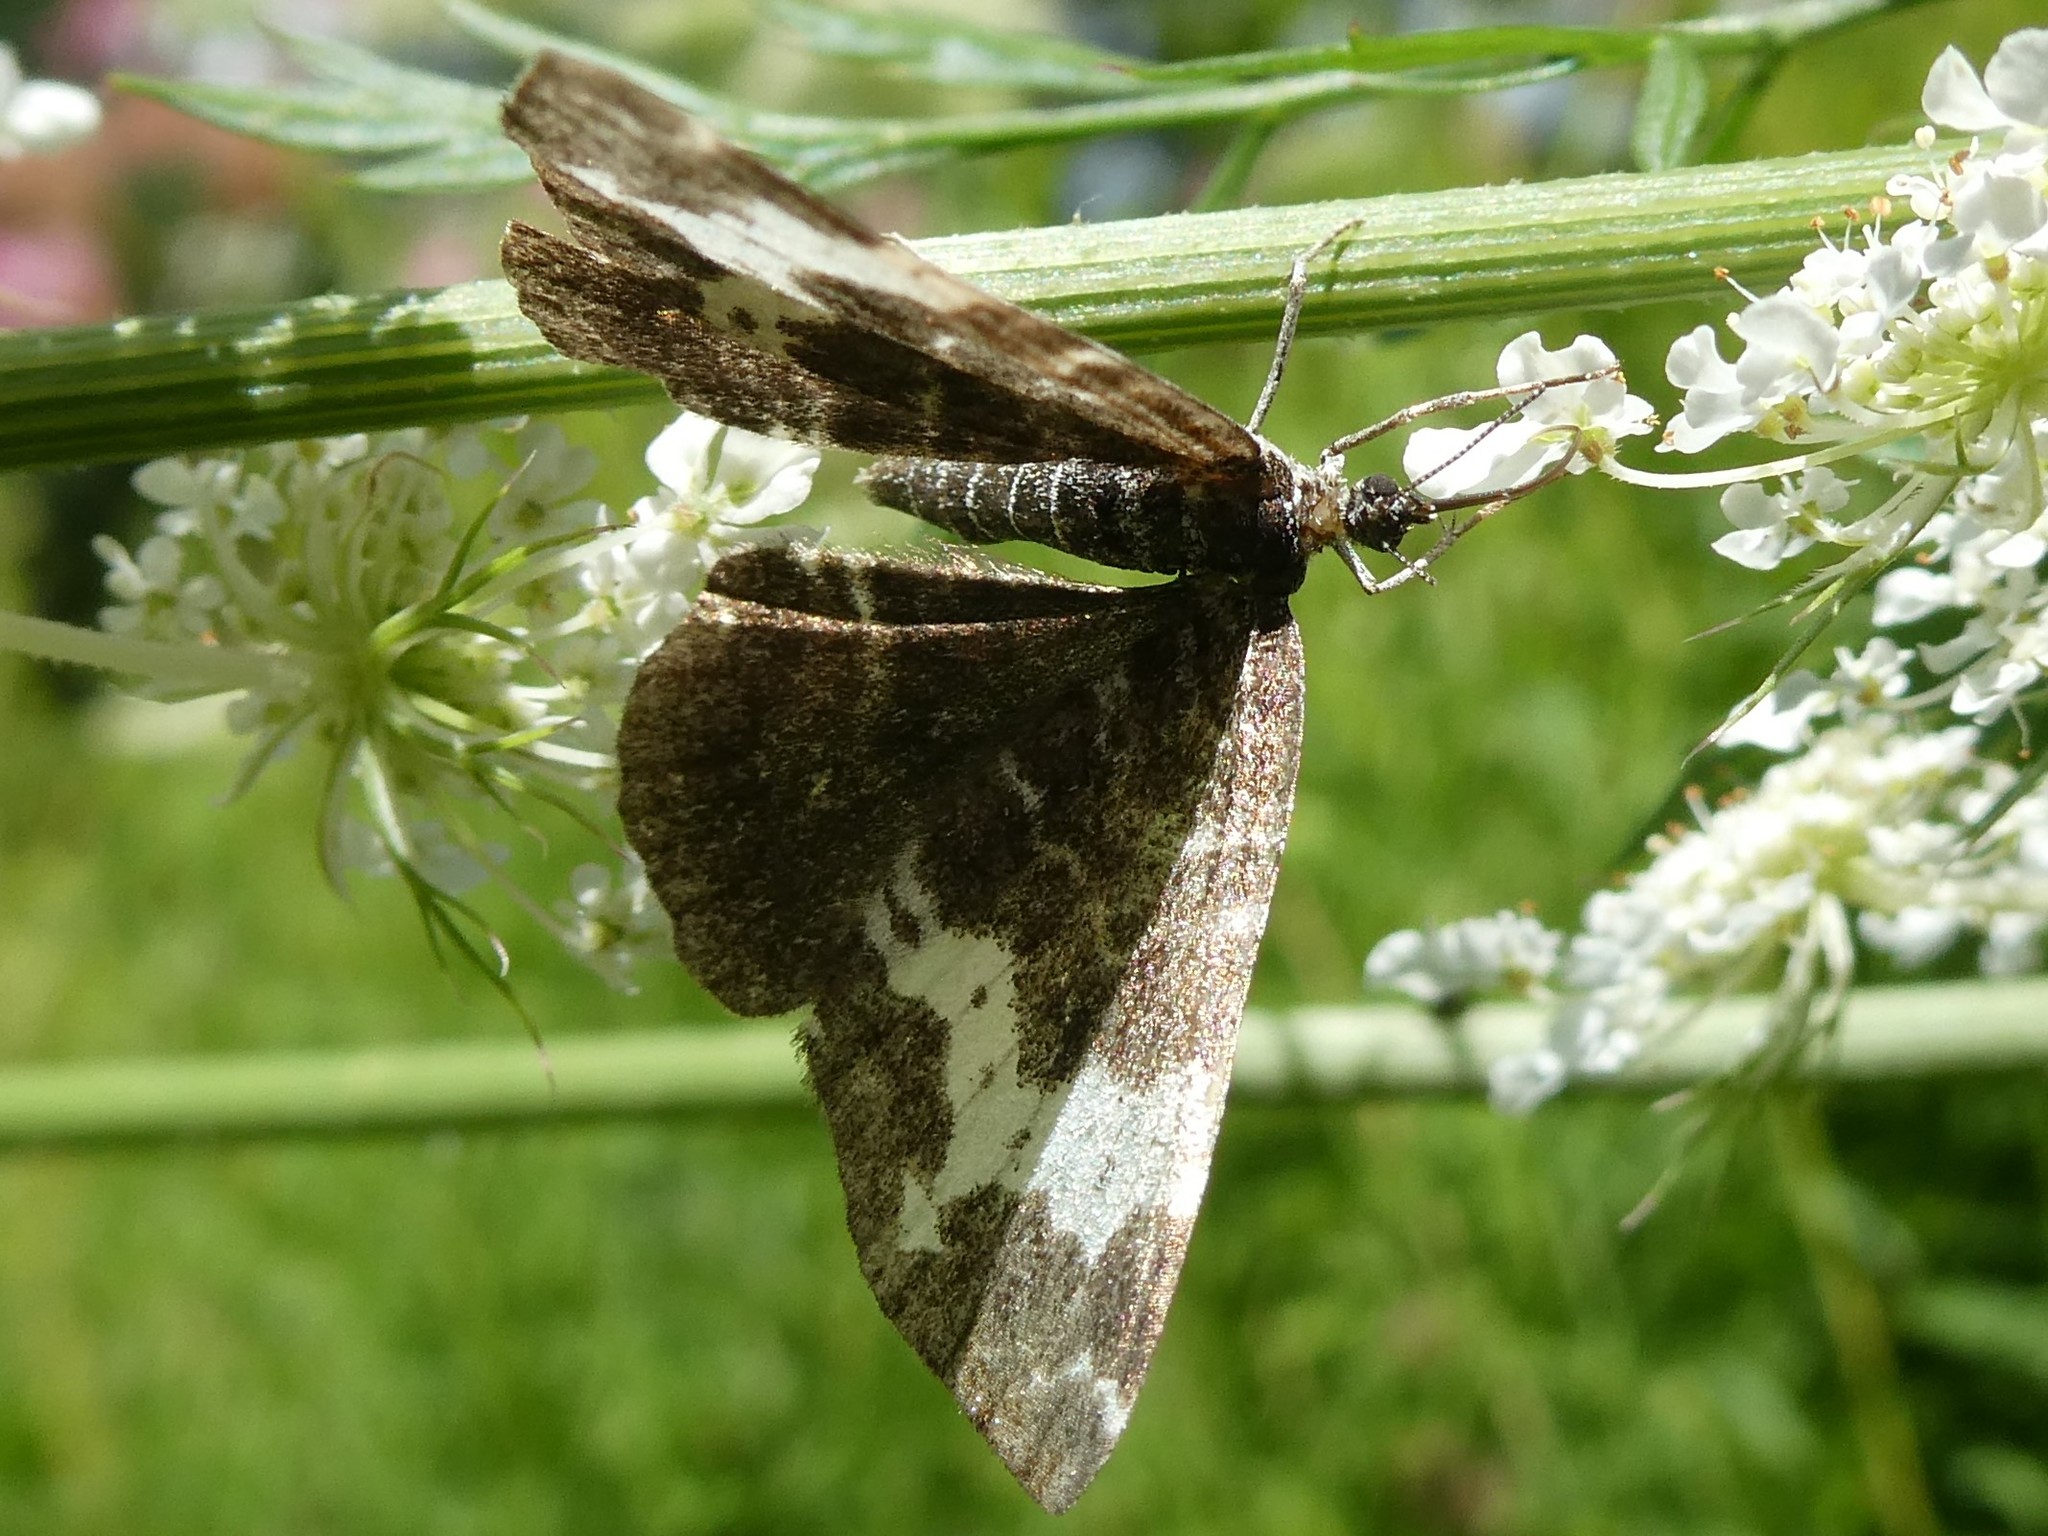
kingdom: Animalia
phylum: Arthropoda
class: Insecta
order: Lepidoptera
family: Geometridae
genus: Rheumaptera
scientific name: Rheumaptera
